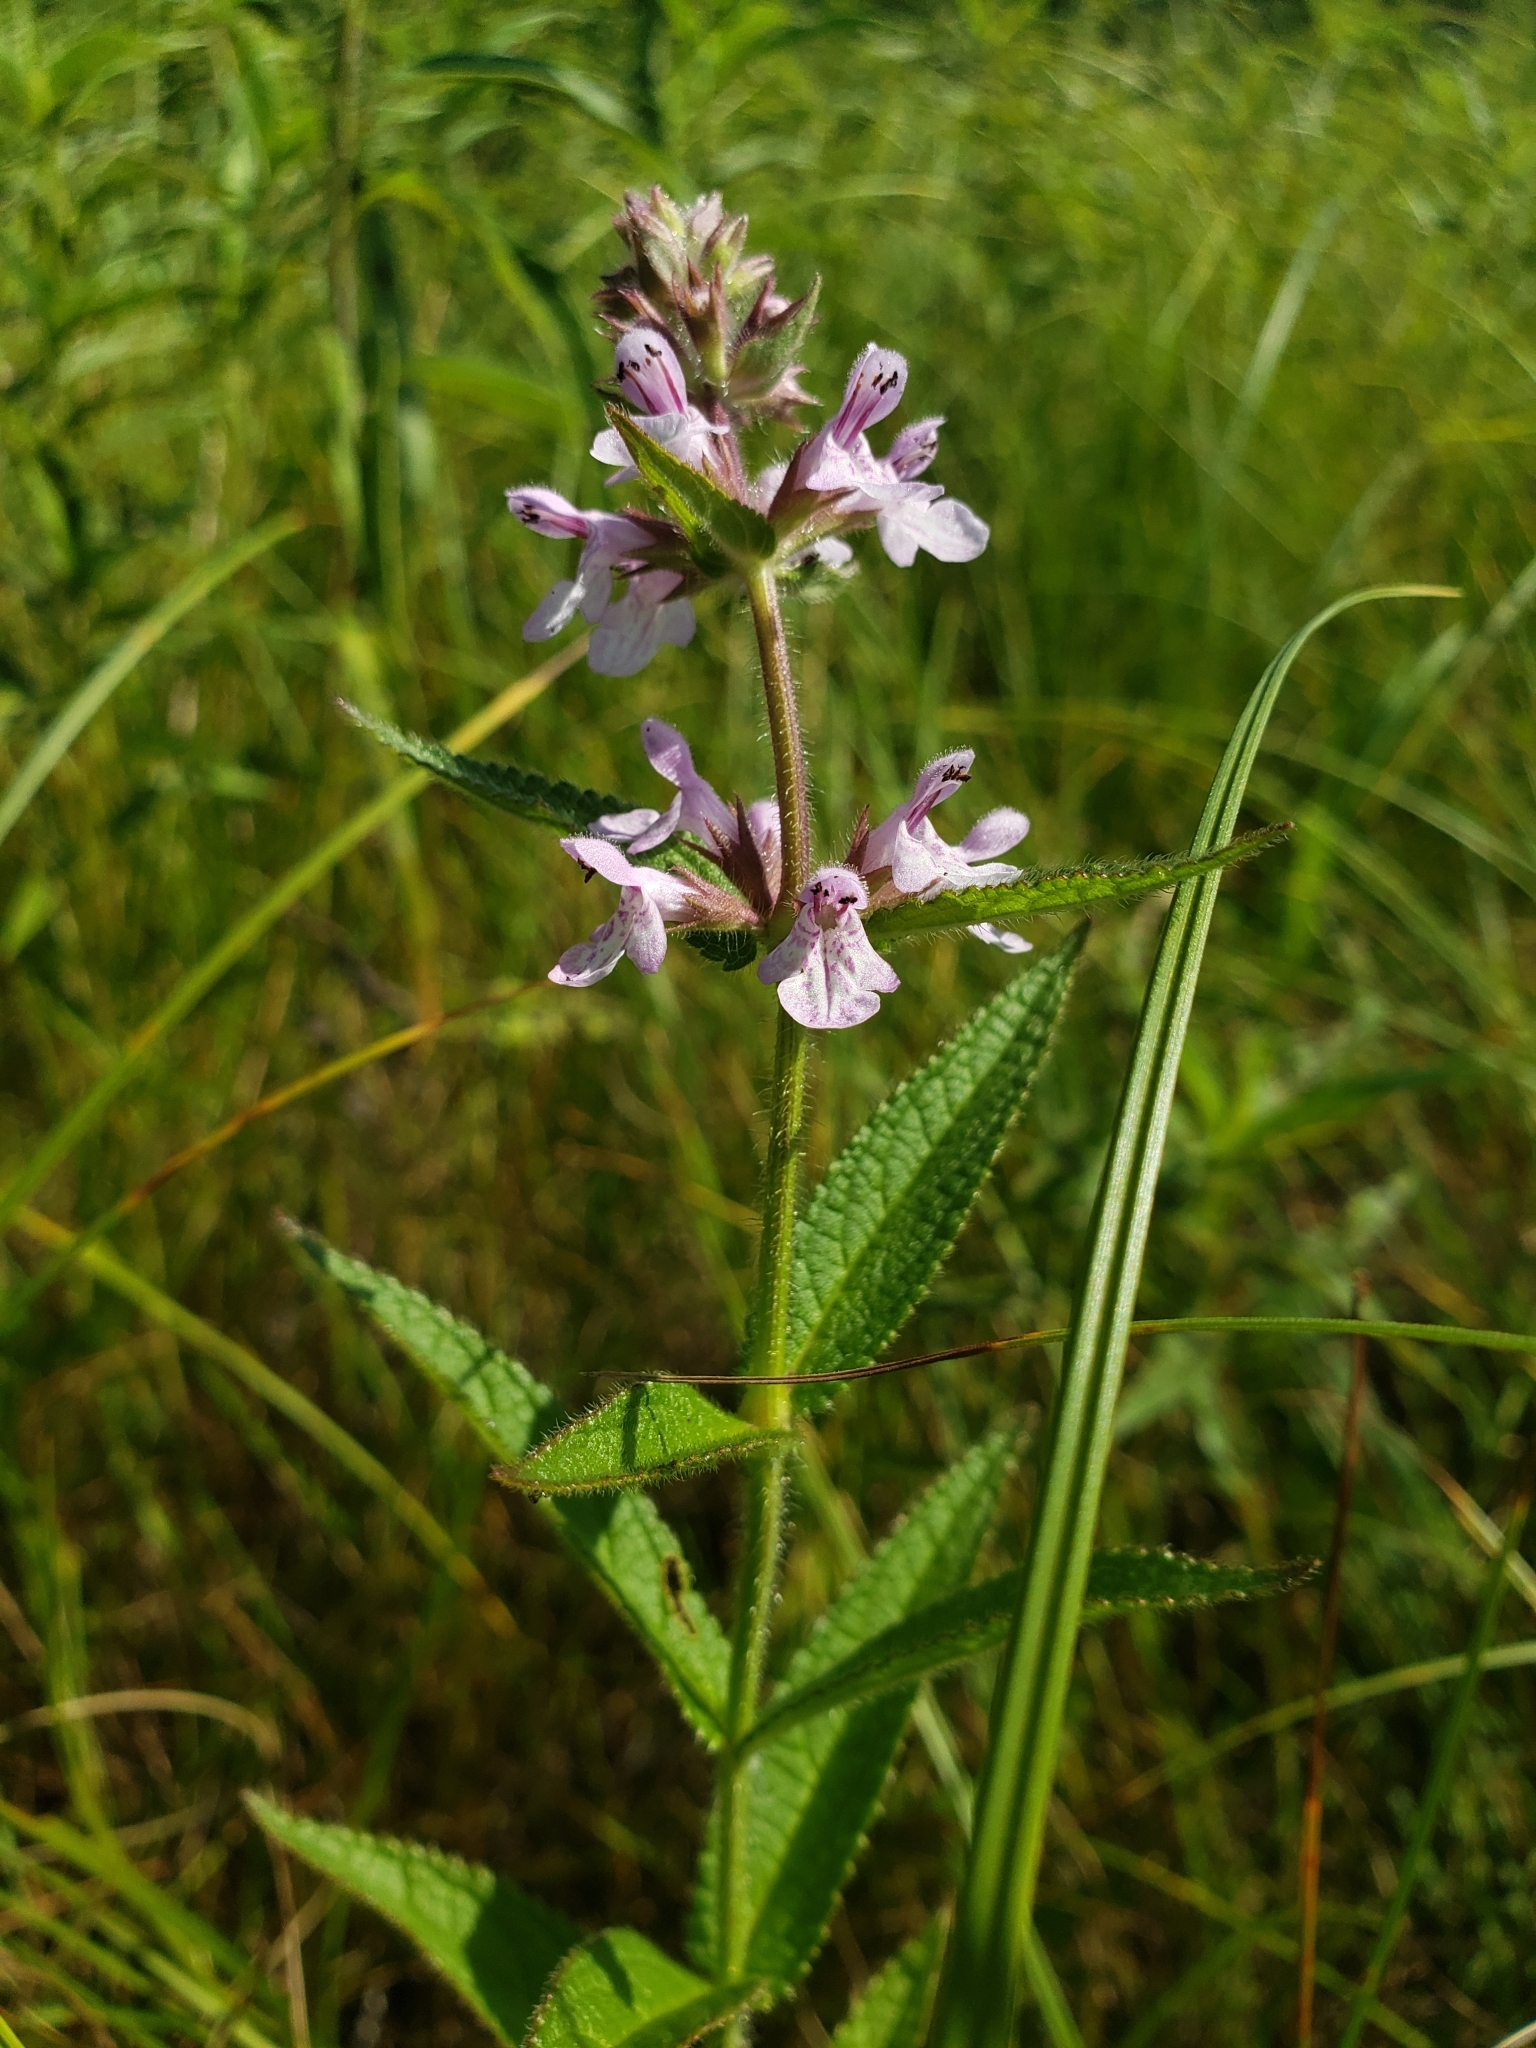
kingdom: Plantae
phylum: Tracheophyta
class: Magnoliopsida
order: Lamiales
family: Lamiaceae
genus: Stachys
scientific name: Stachys palustris
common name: Marsh woundwort
